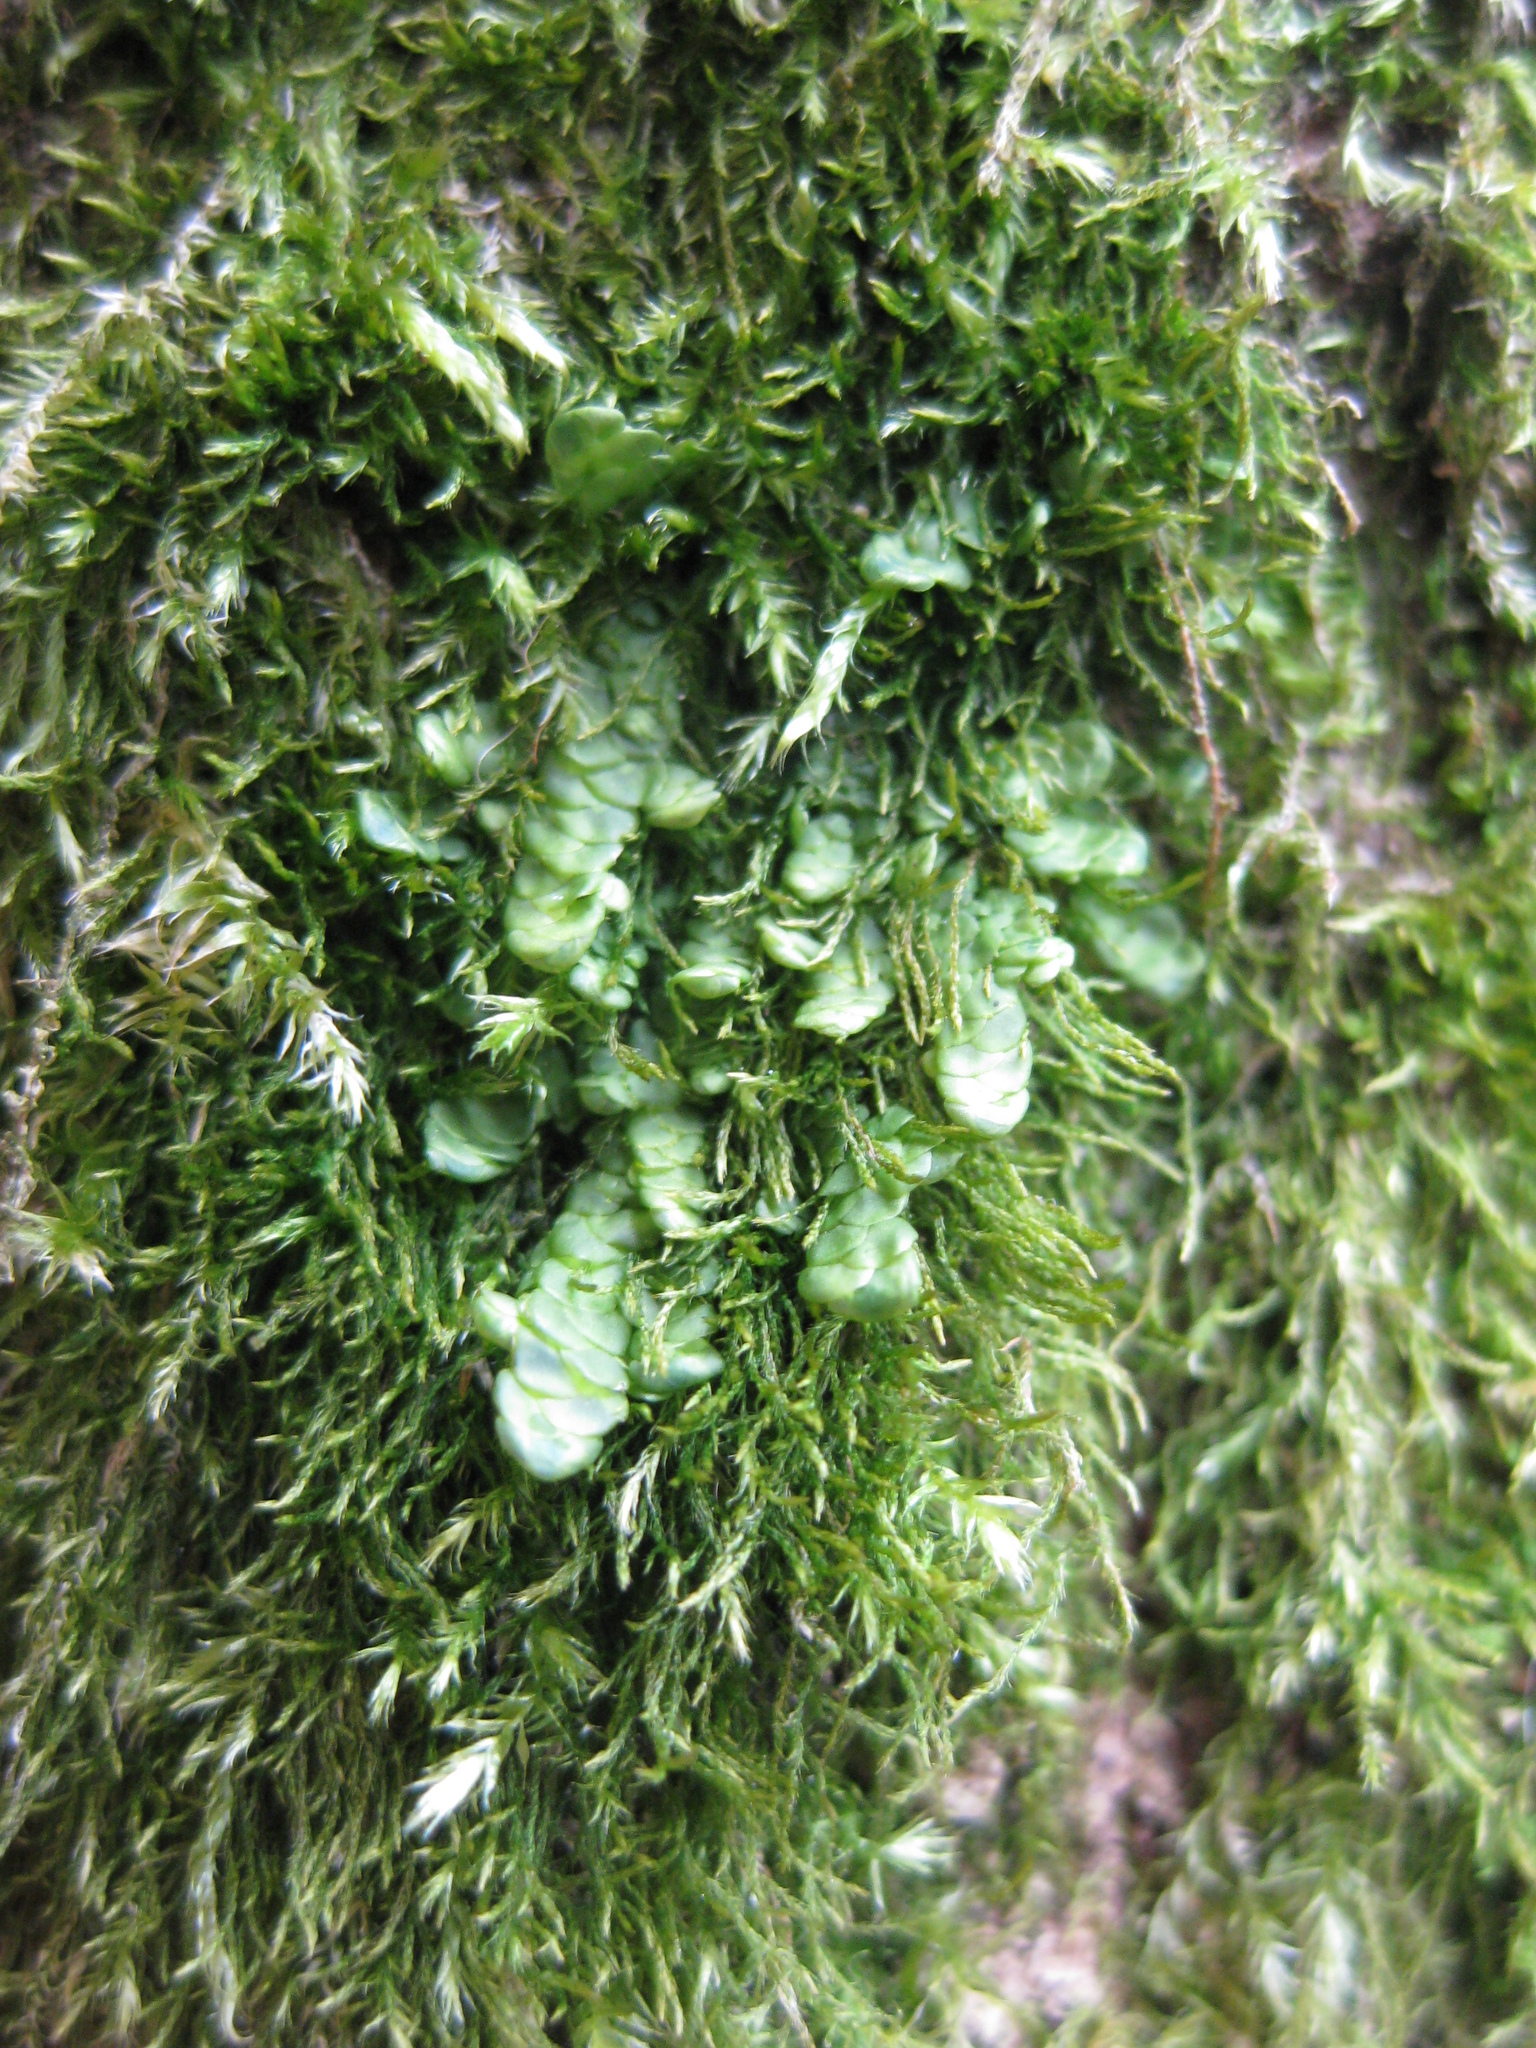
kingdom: Plantae
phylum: Marchantiophyta
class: Jungermanniopsida
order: Porellales
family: Radulaceae
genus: Radula
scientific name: Radula complanata
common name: Flat-leaved scalewort
